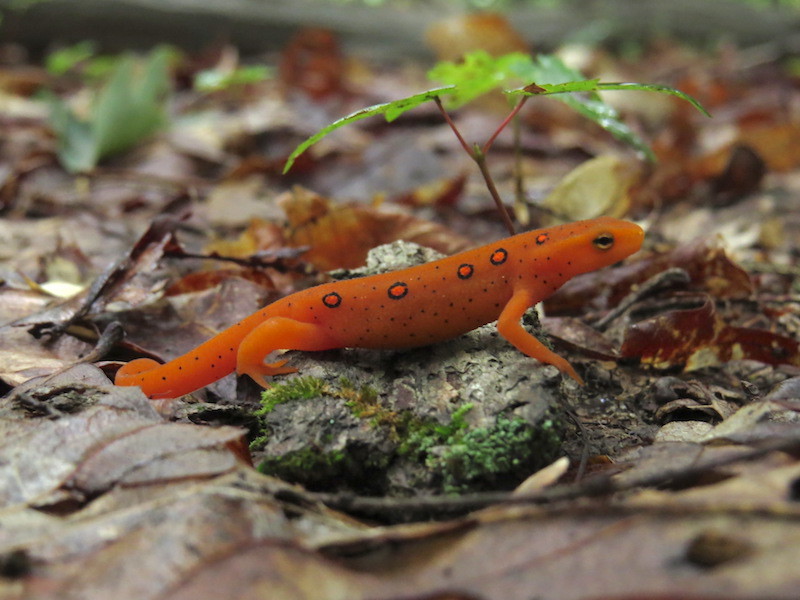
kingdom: Animalia
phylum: Chordata
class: Amphibia
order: Caudata
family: Salamandridae
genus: Notophthalmus
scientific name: Notophthalmus viridescens
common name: Eastern newt
